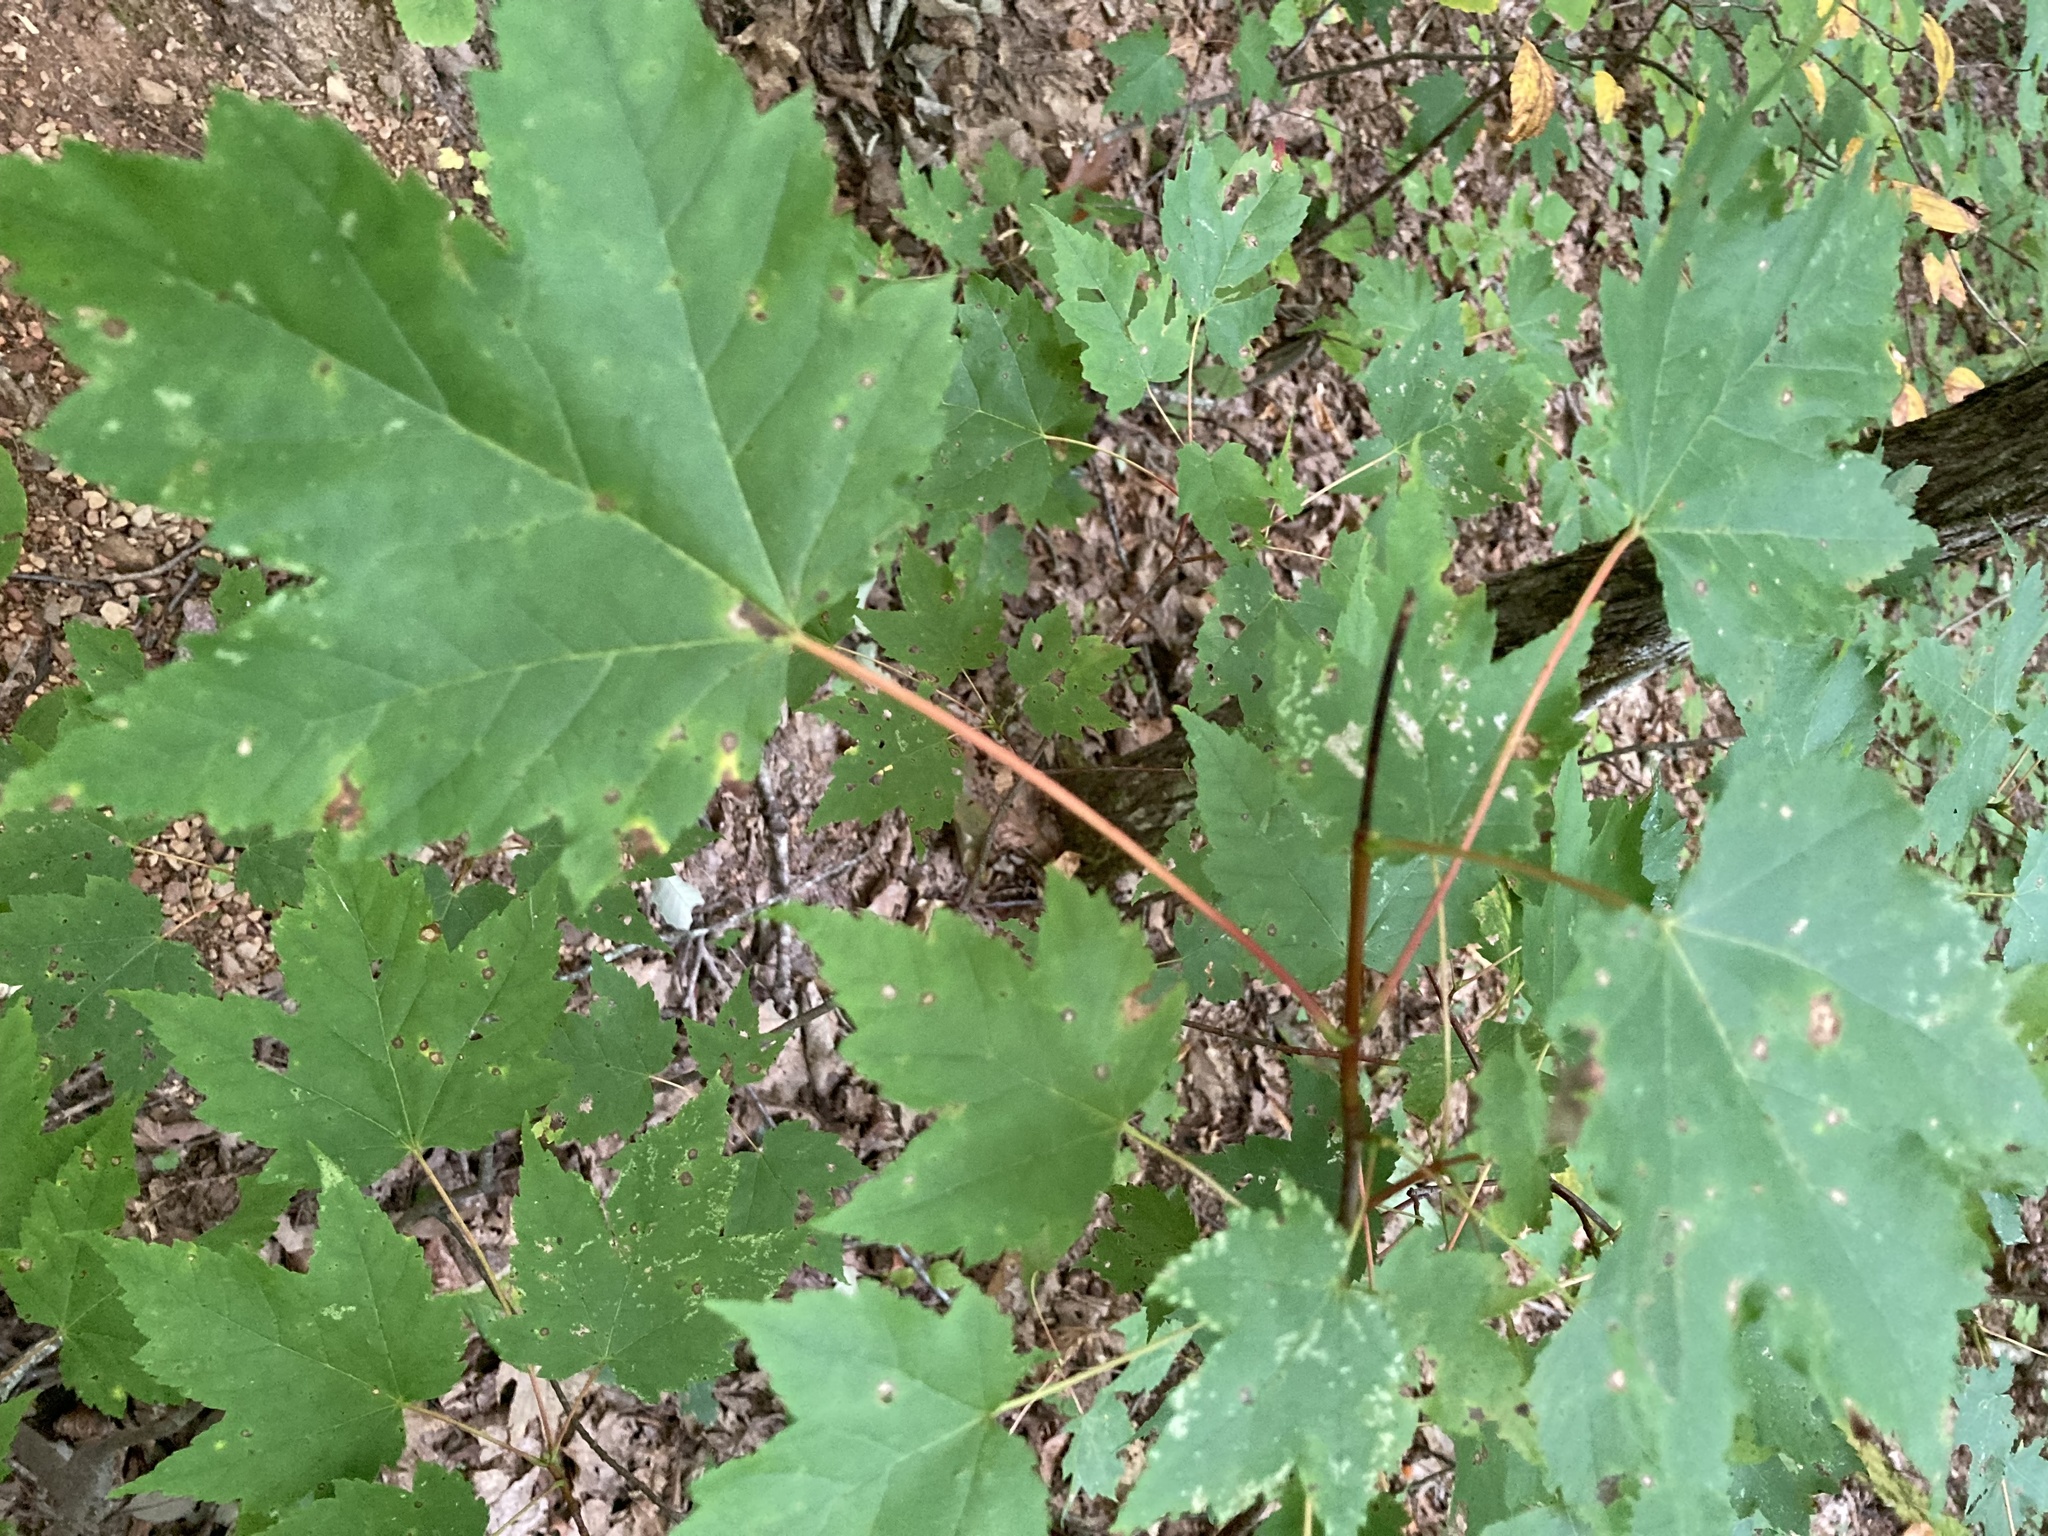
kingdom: Plantae
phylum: Tracheophyta
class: Magnoliopsida
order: Sapindales
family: Sapindaceae
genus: Acer
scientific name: Acer rubrum
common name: Red maple
